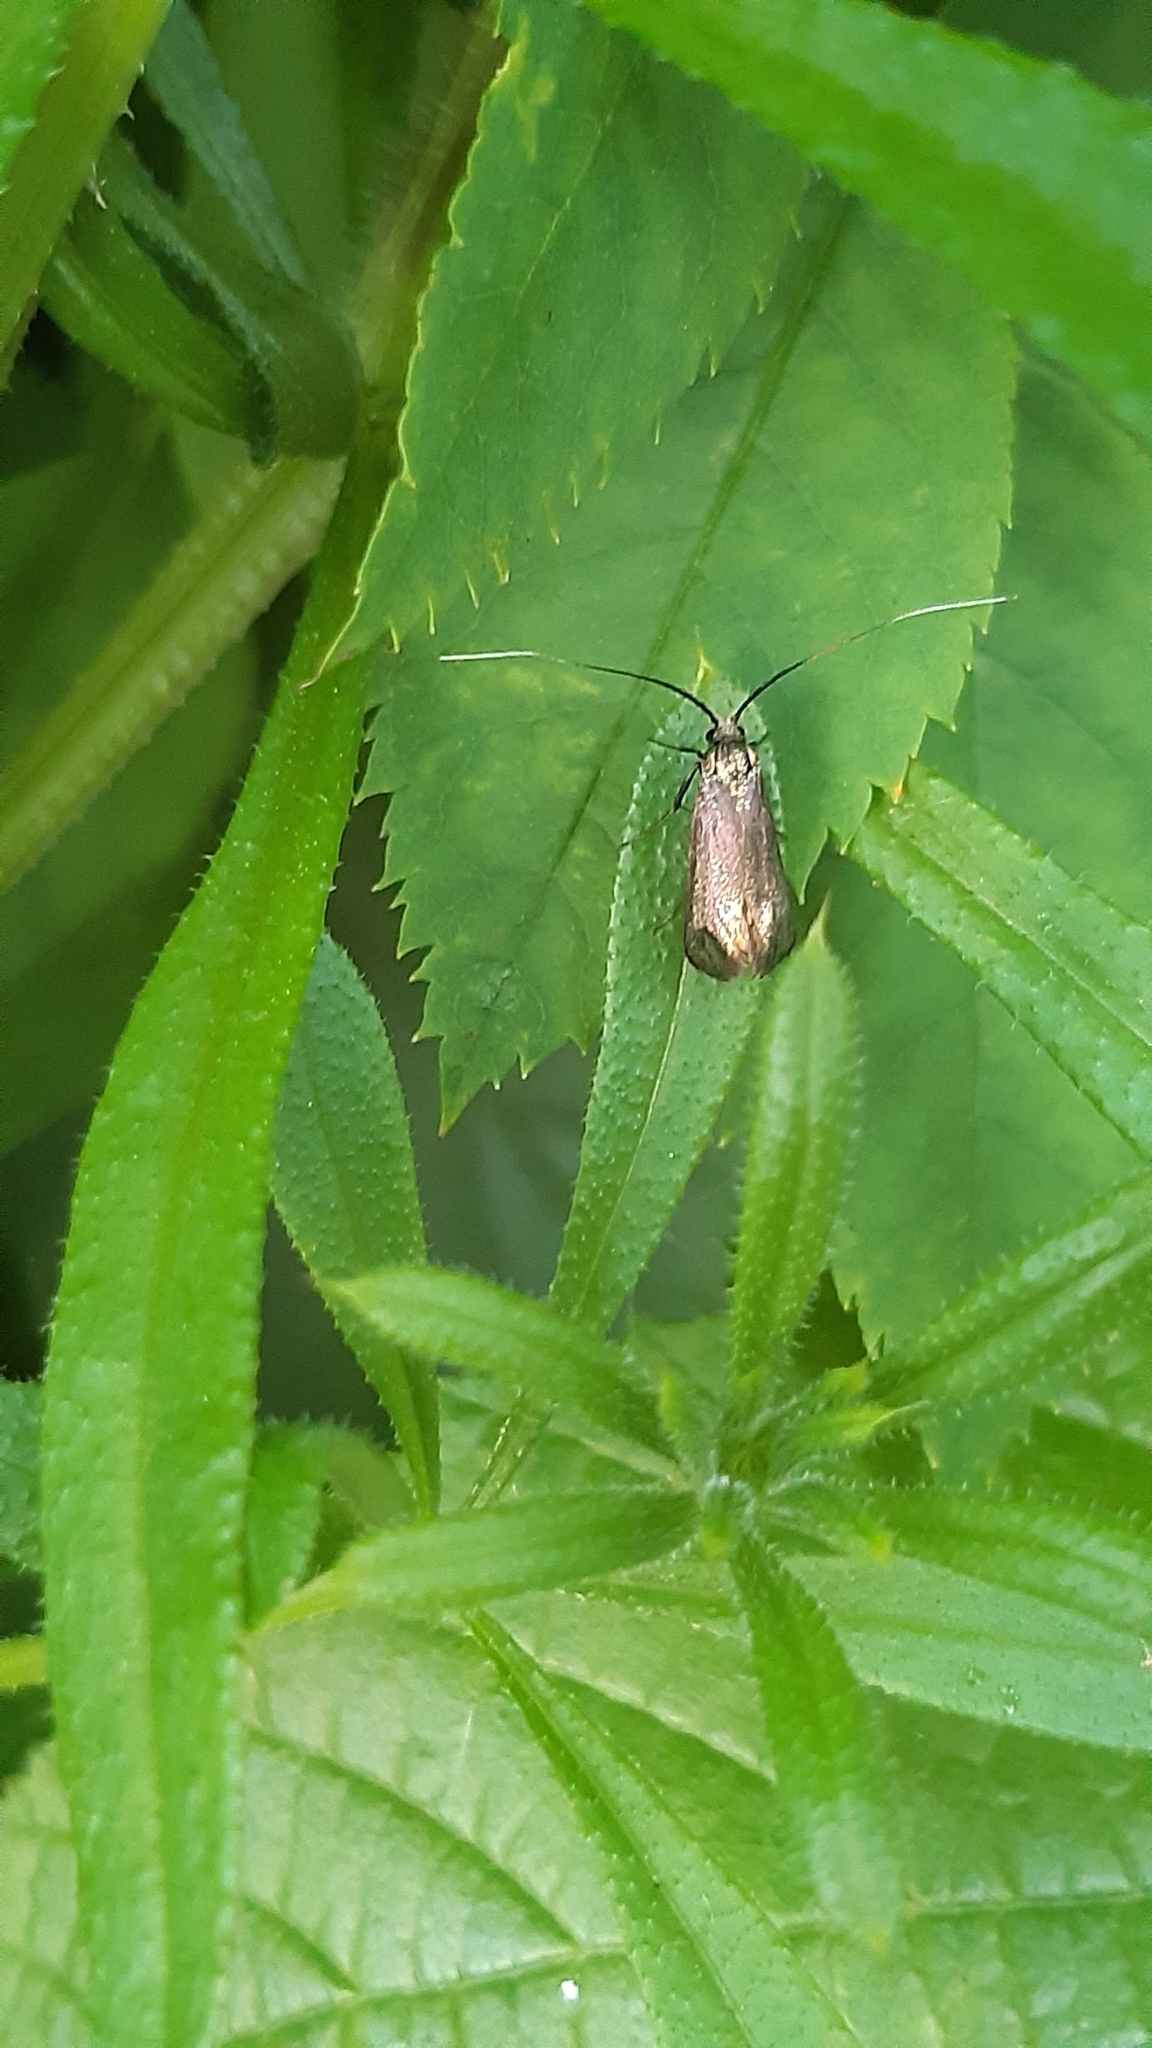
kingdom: Animalia
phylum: Arthropoda
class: Insecta
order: Lepidoptera
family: Adelidae
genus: Adela
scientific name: Adela viridella
